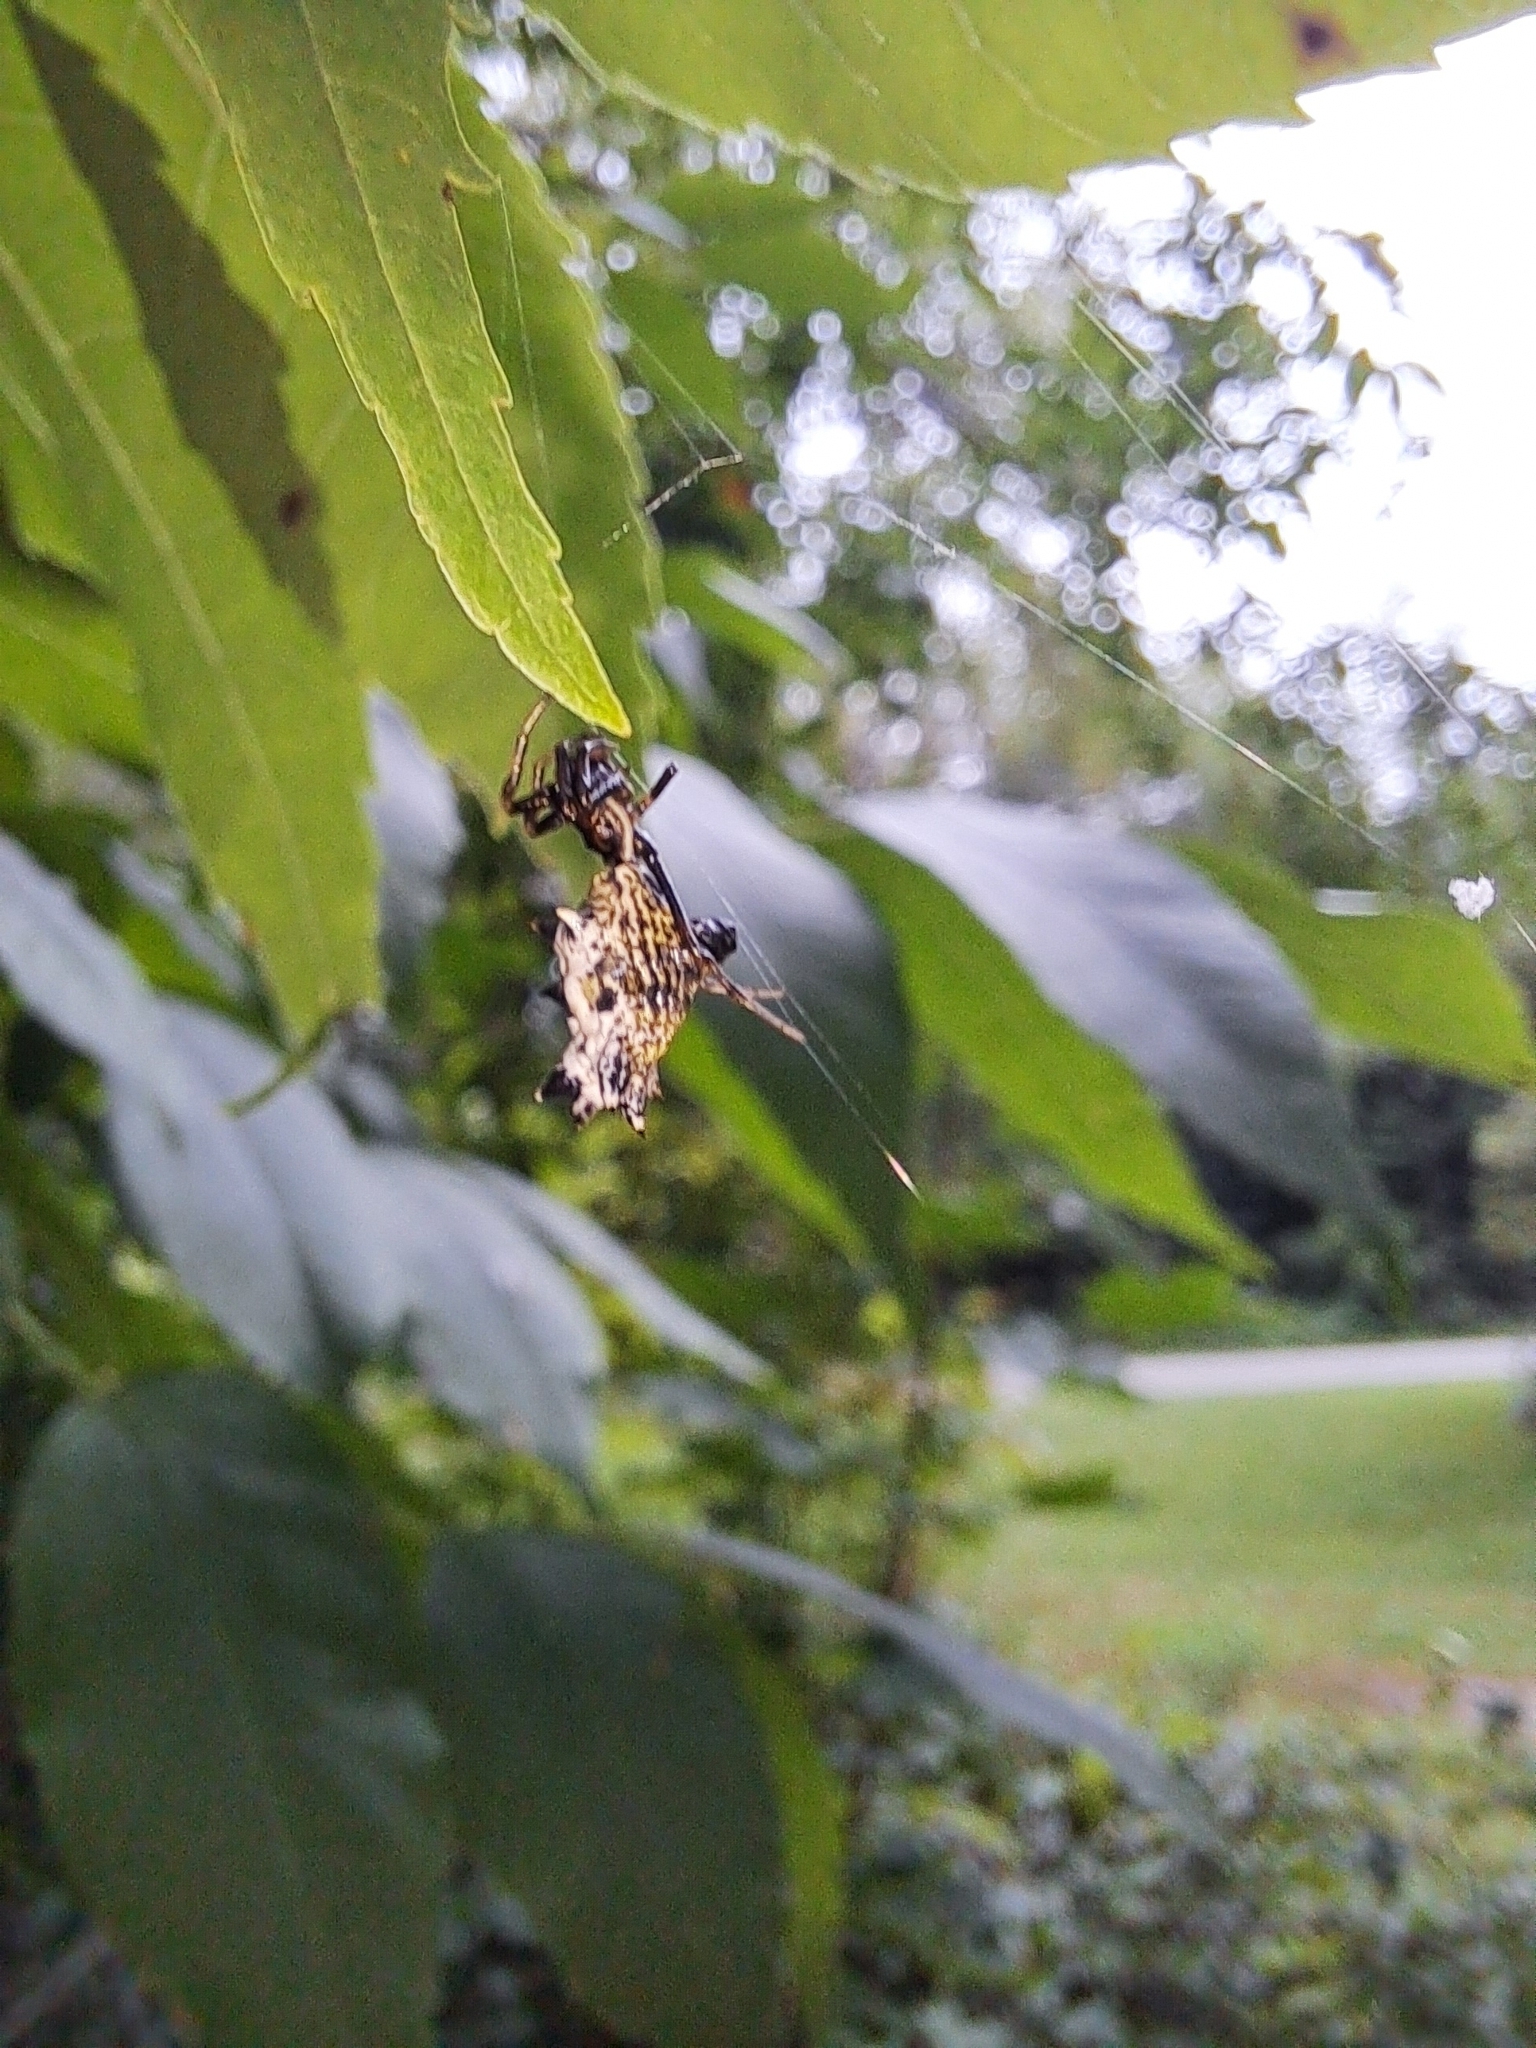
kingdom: Animalia
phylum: Arthropoda
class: Arachnida
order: Araneae
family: Araneidae
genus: Micrathena
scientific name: Micrathena gracilis
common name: Orb weavers
